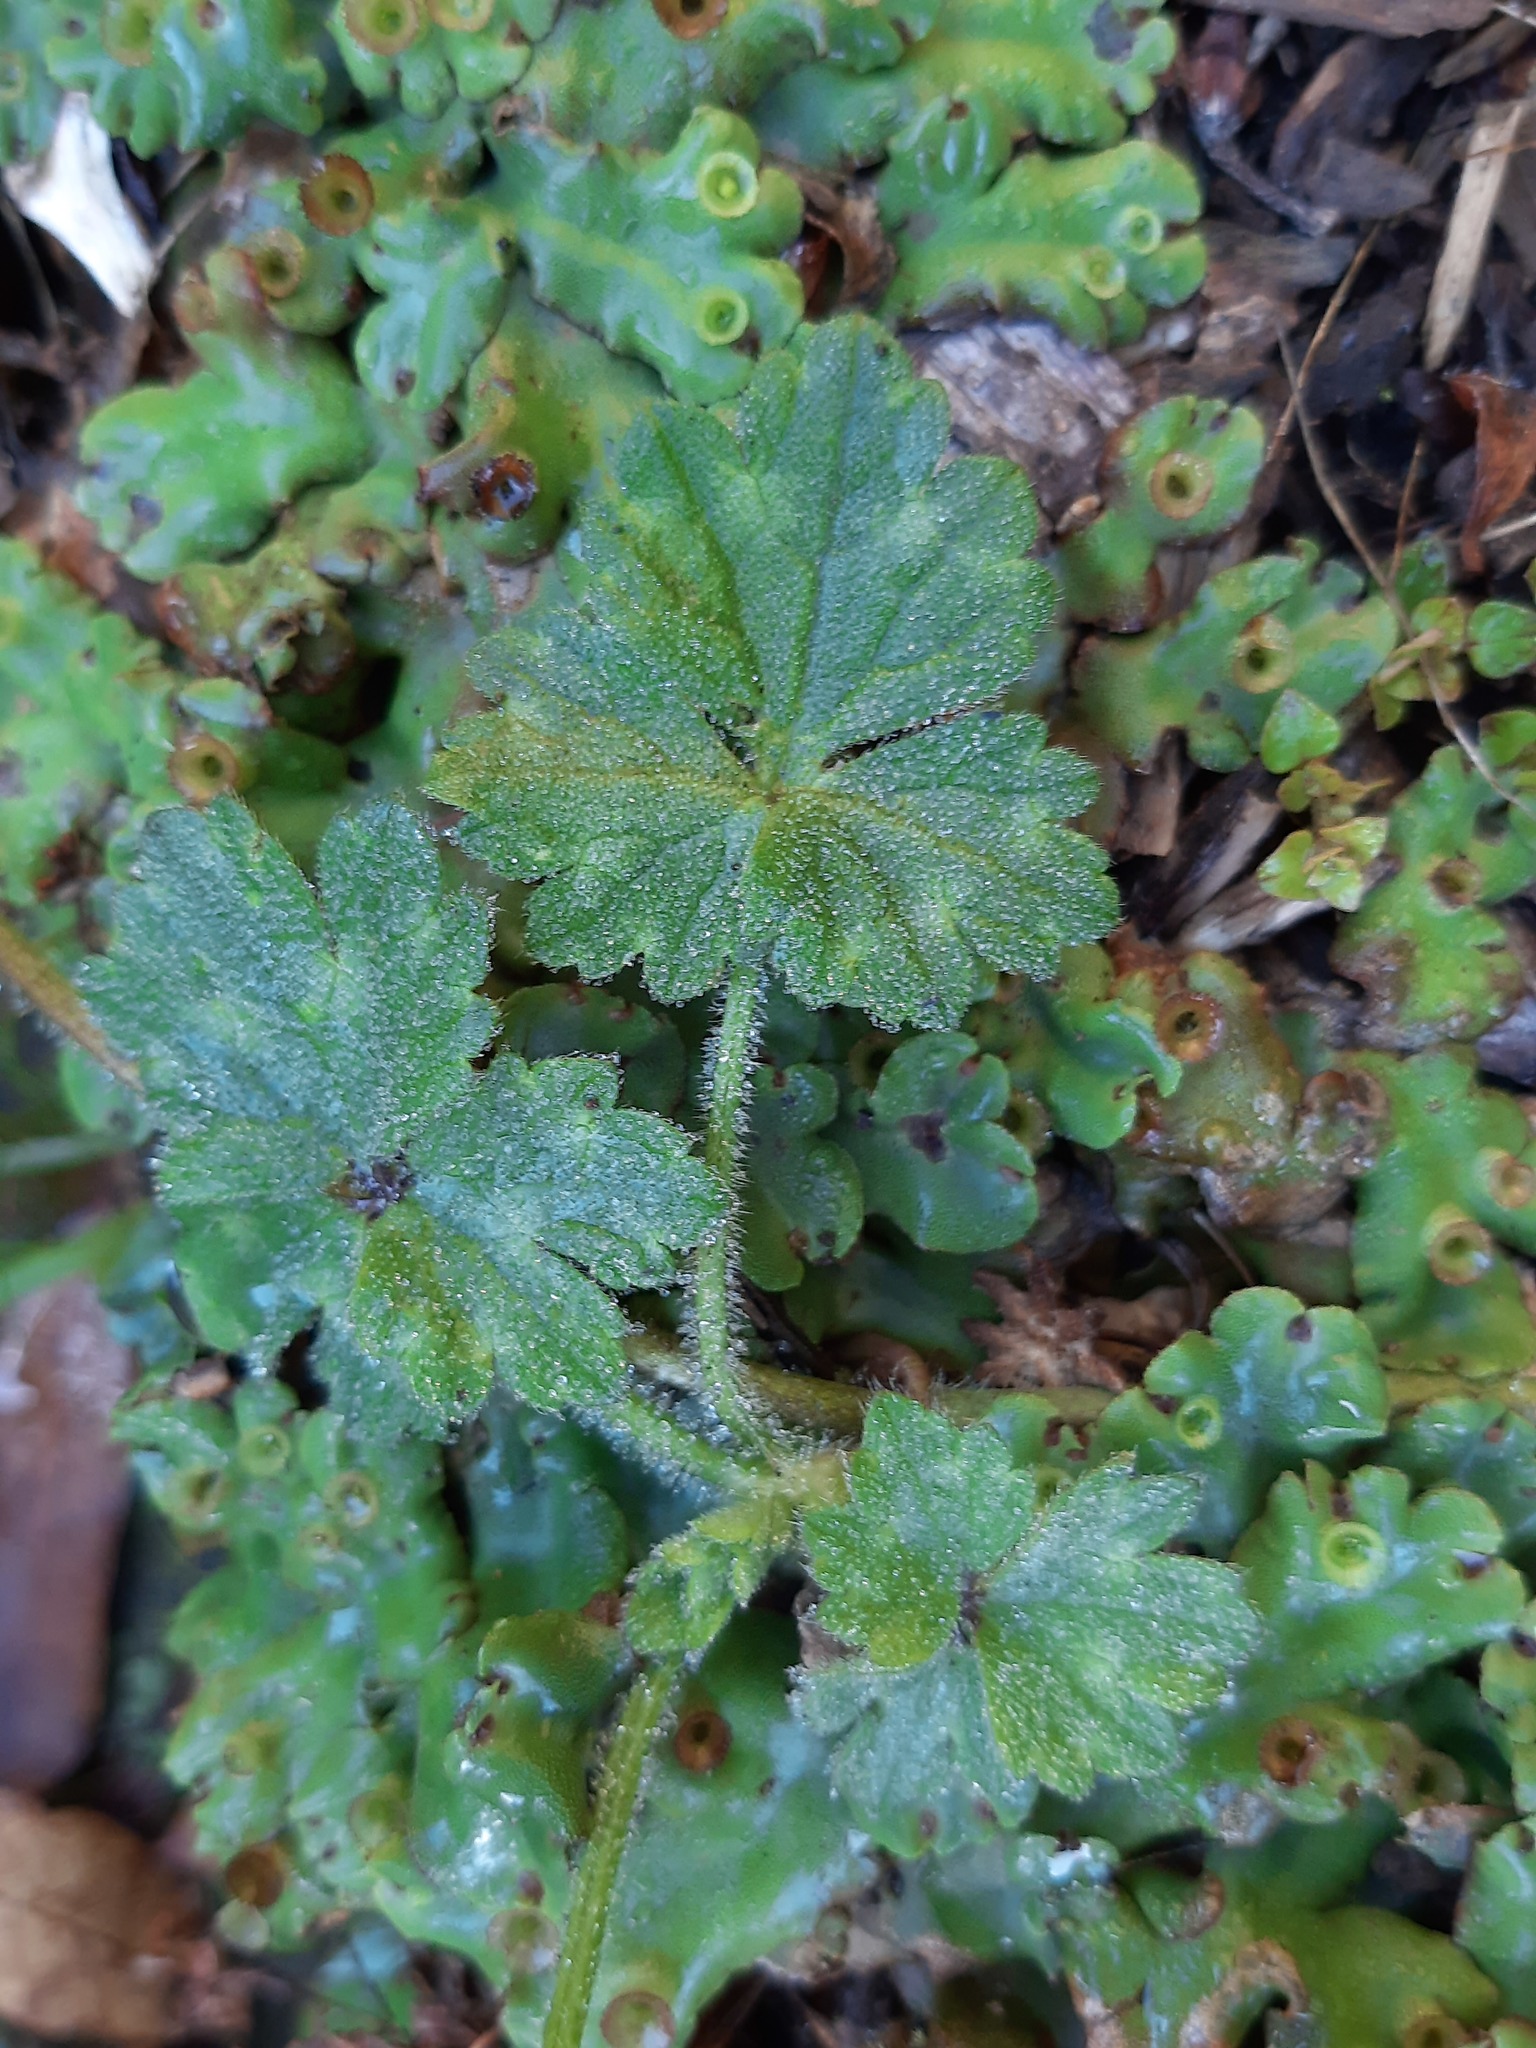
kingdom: Plantae
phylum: Tracheophyta
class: Magnoliopsida
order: Ranunculales
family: Ranunculaceae
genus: Ranunculus
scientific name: Ranunculus repens
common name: Creeping buttercup
